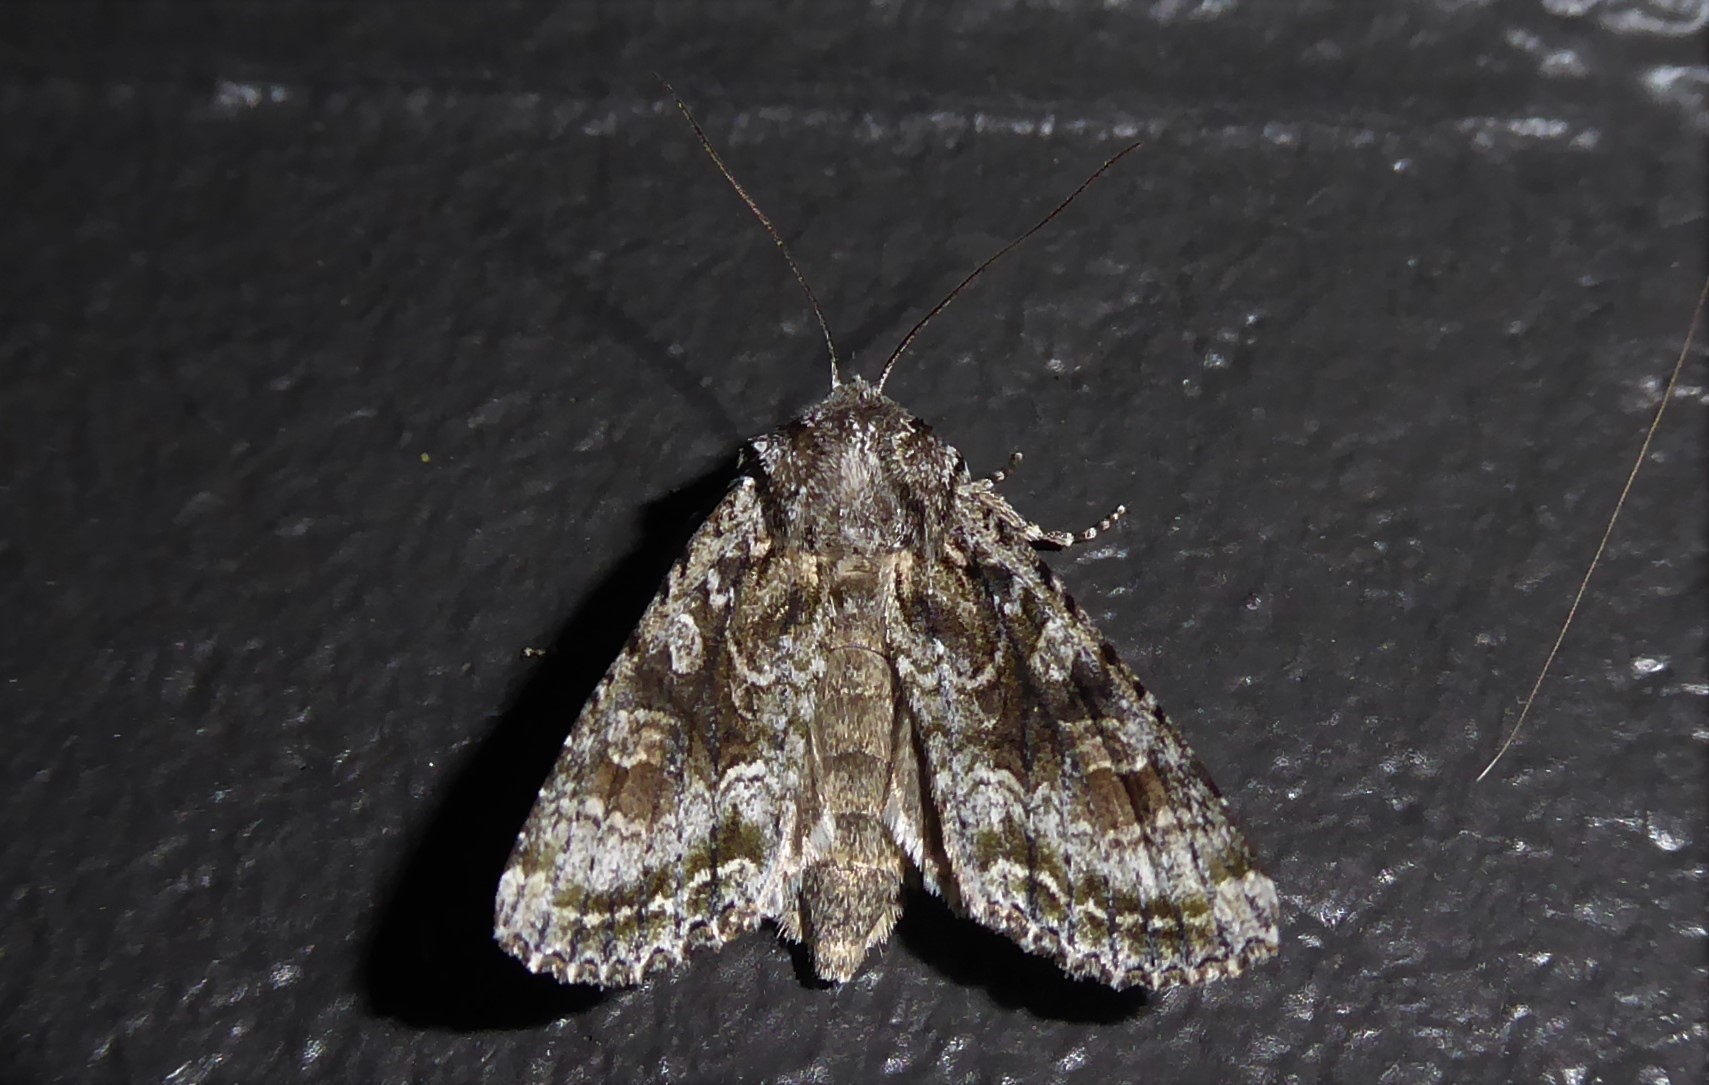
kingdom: Animalia
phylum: Arthropoda
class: Insecta
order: Lepidoptera
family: Noctuidae
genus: Ichneutica
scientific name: Ichneutica mutans
